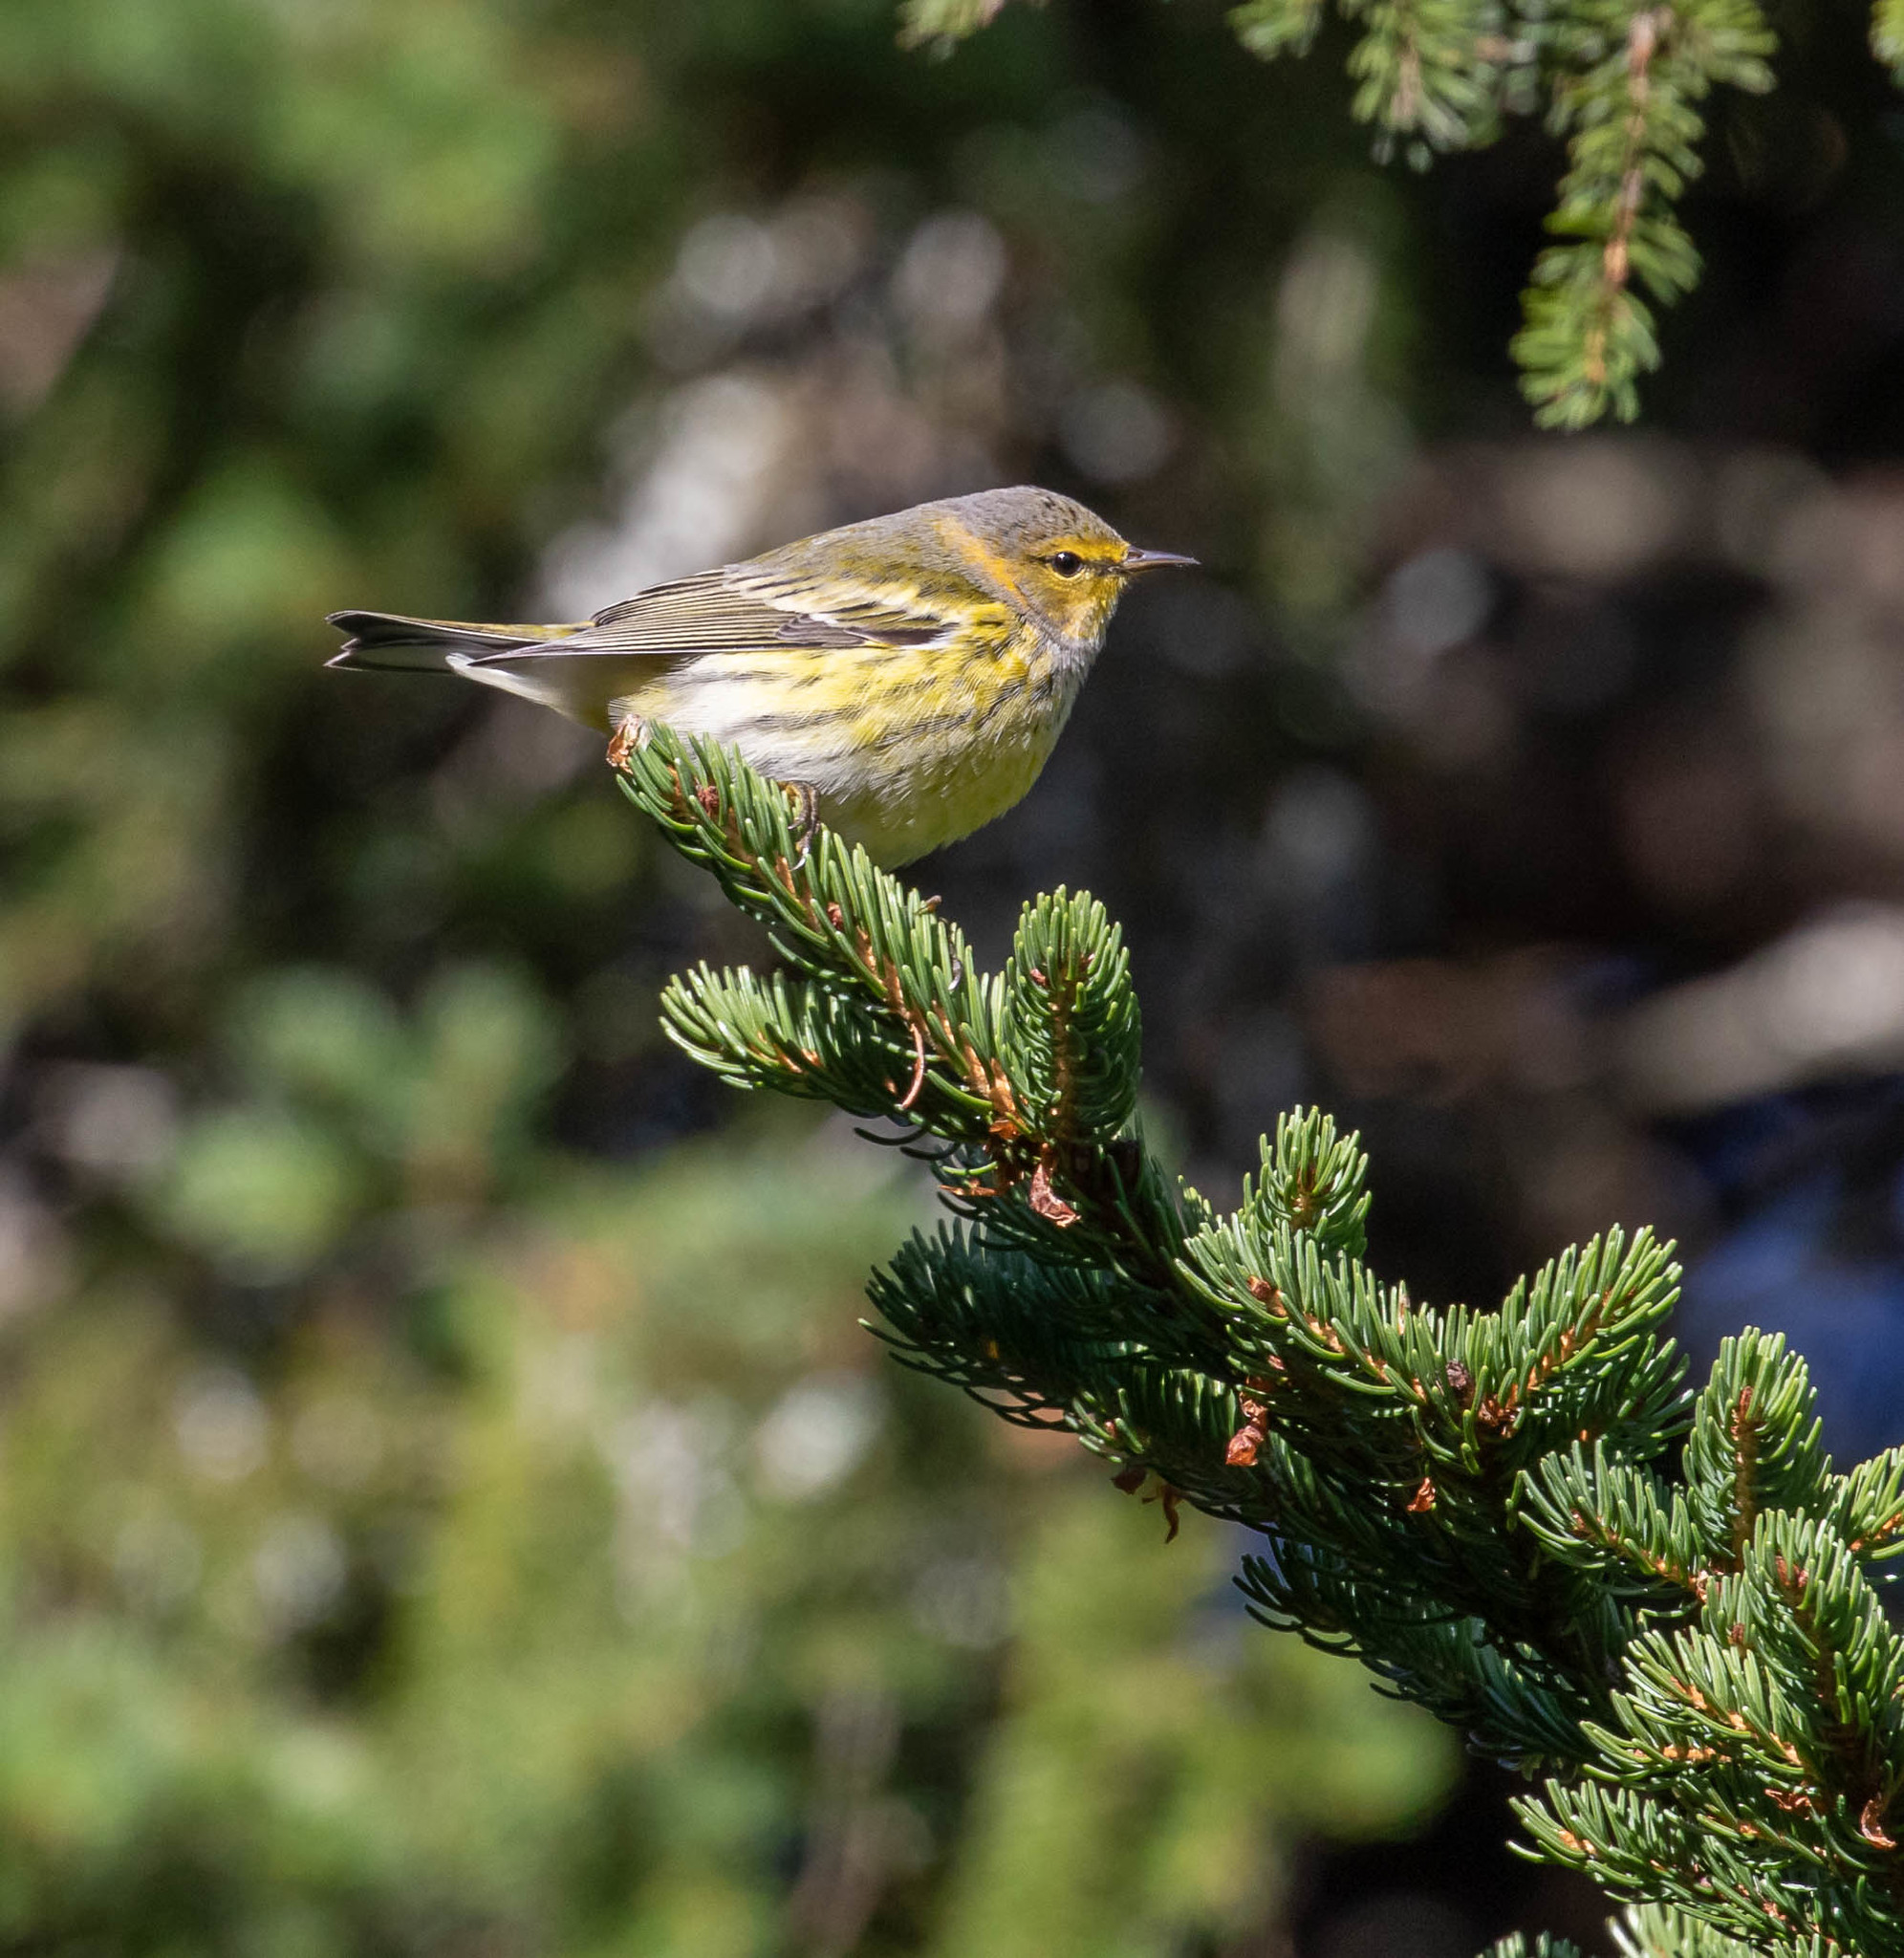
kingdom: Animalia
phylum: Chordata
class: Aves
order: Passeriformes
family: Parulidae
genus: Setophaga
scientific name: Setophaga tigrina
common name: Cape may warbler
